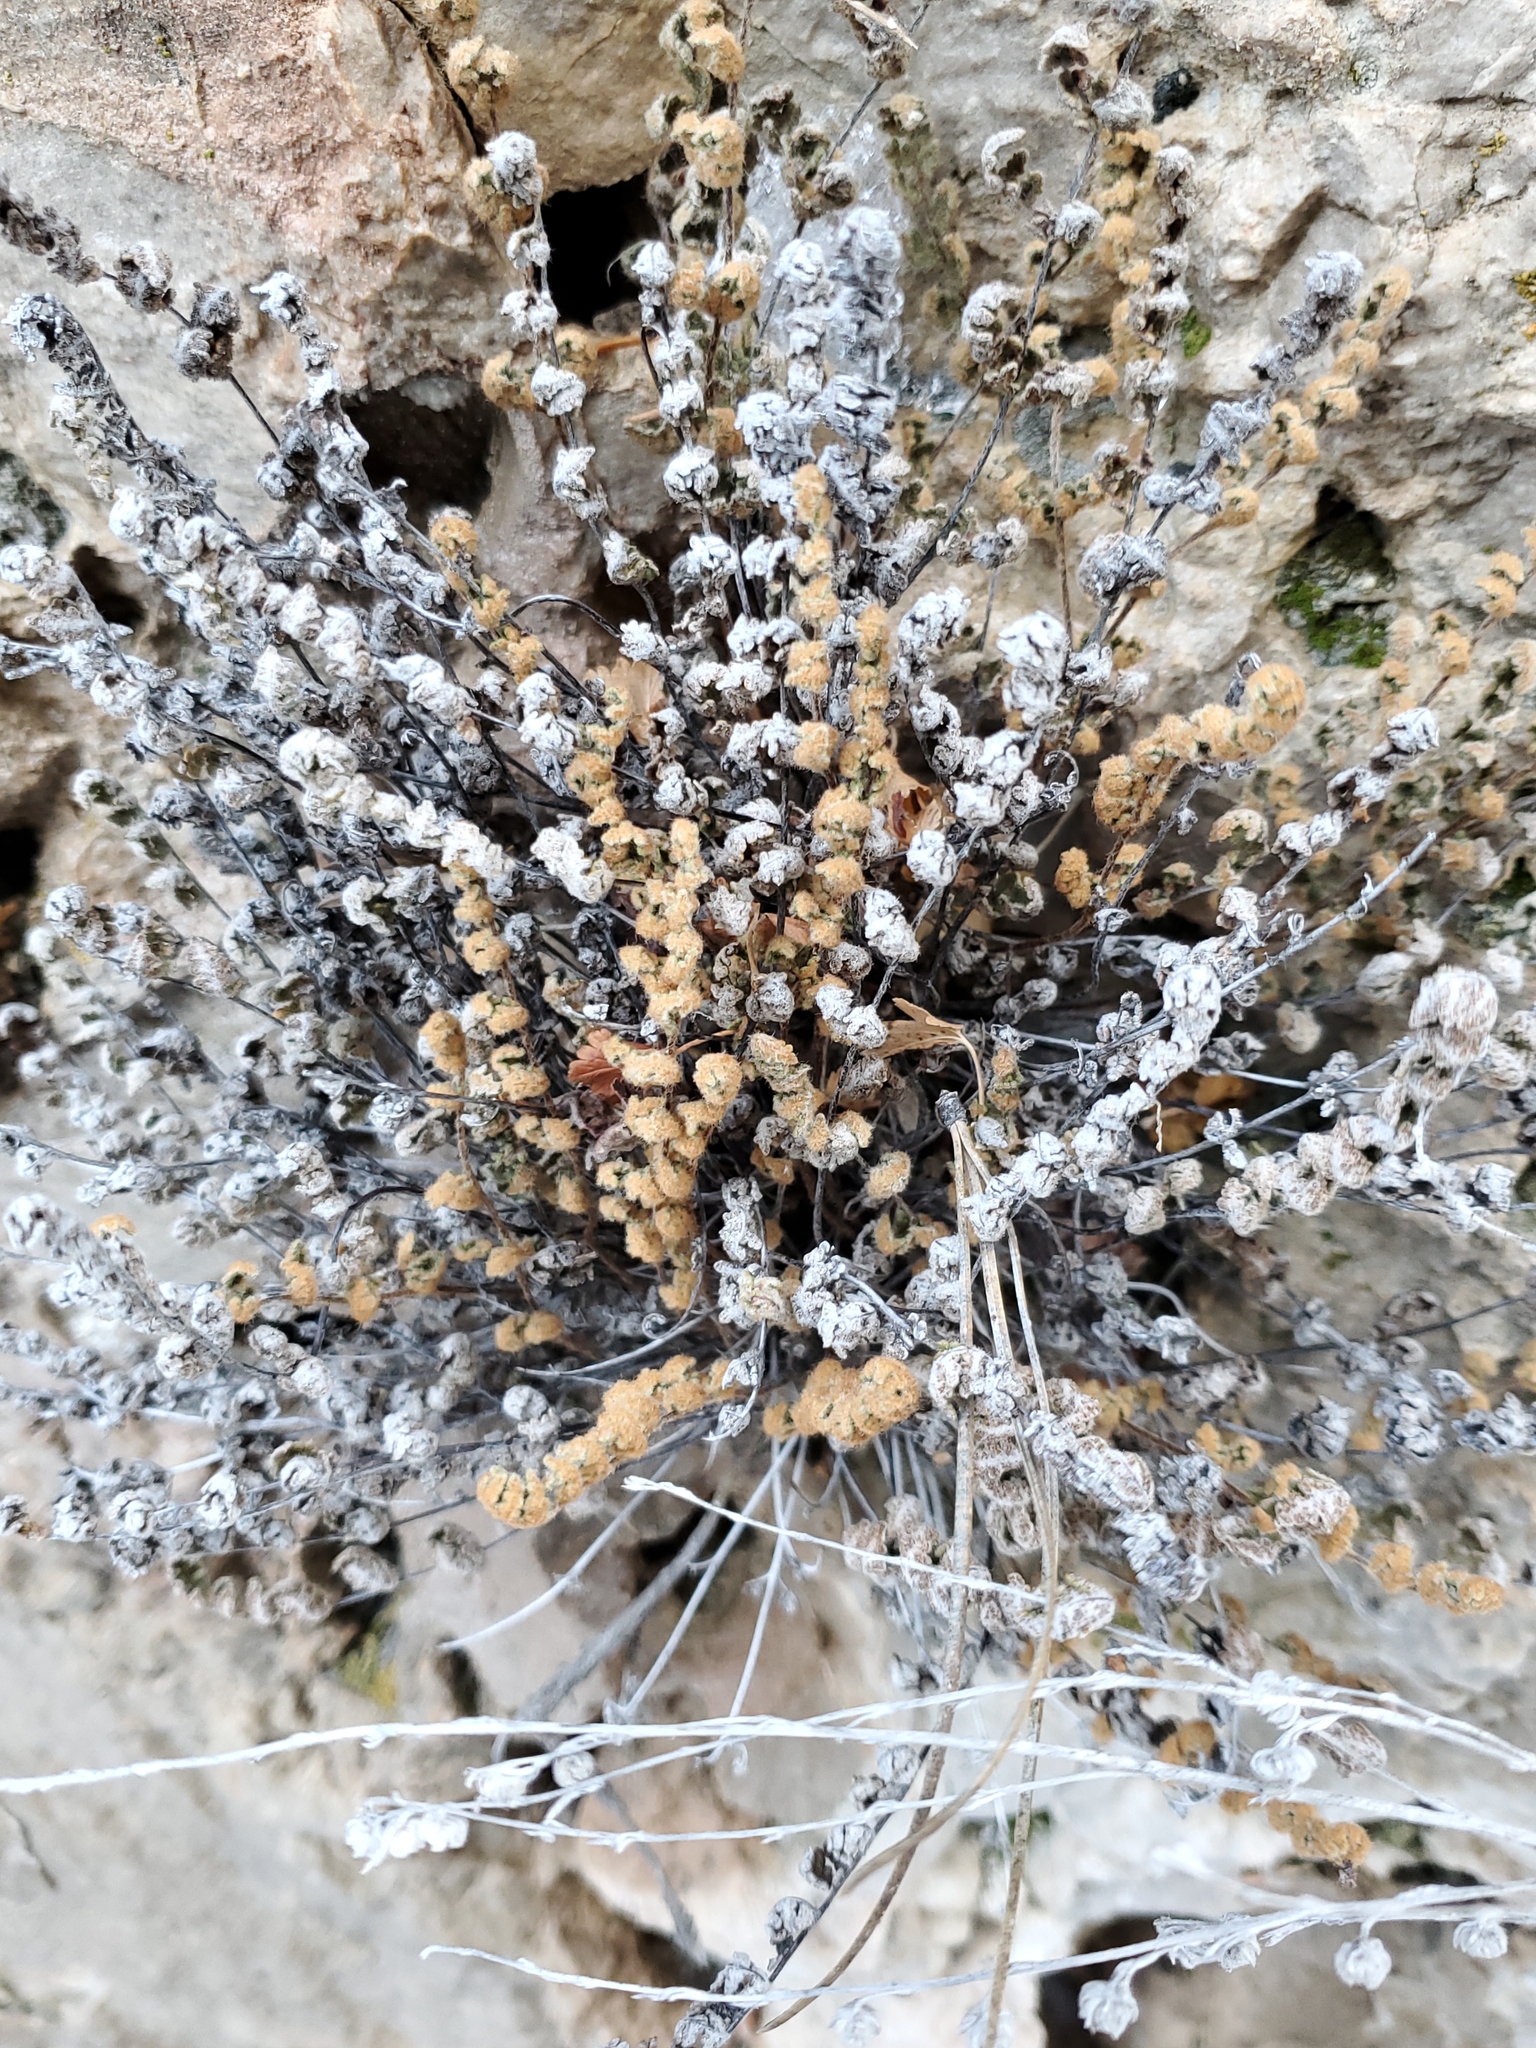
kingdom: Plantae
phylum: Tracheophyta
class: Polypodiopsida
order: Polypodiales
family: Pteridaceae
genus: Myriopteris
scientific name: Myriopteris gracilis
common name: Fee's lip fern
